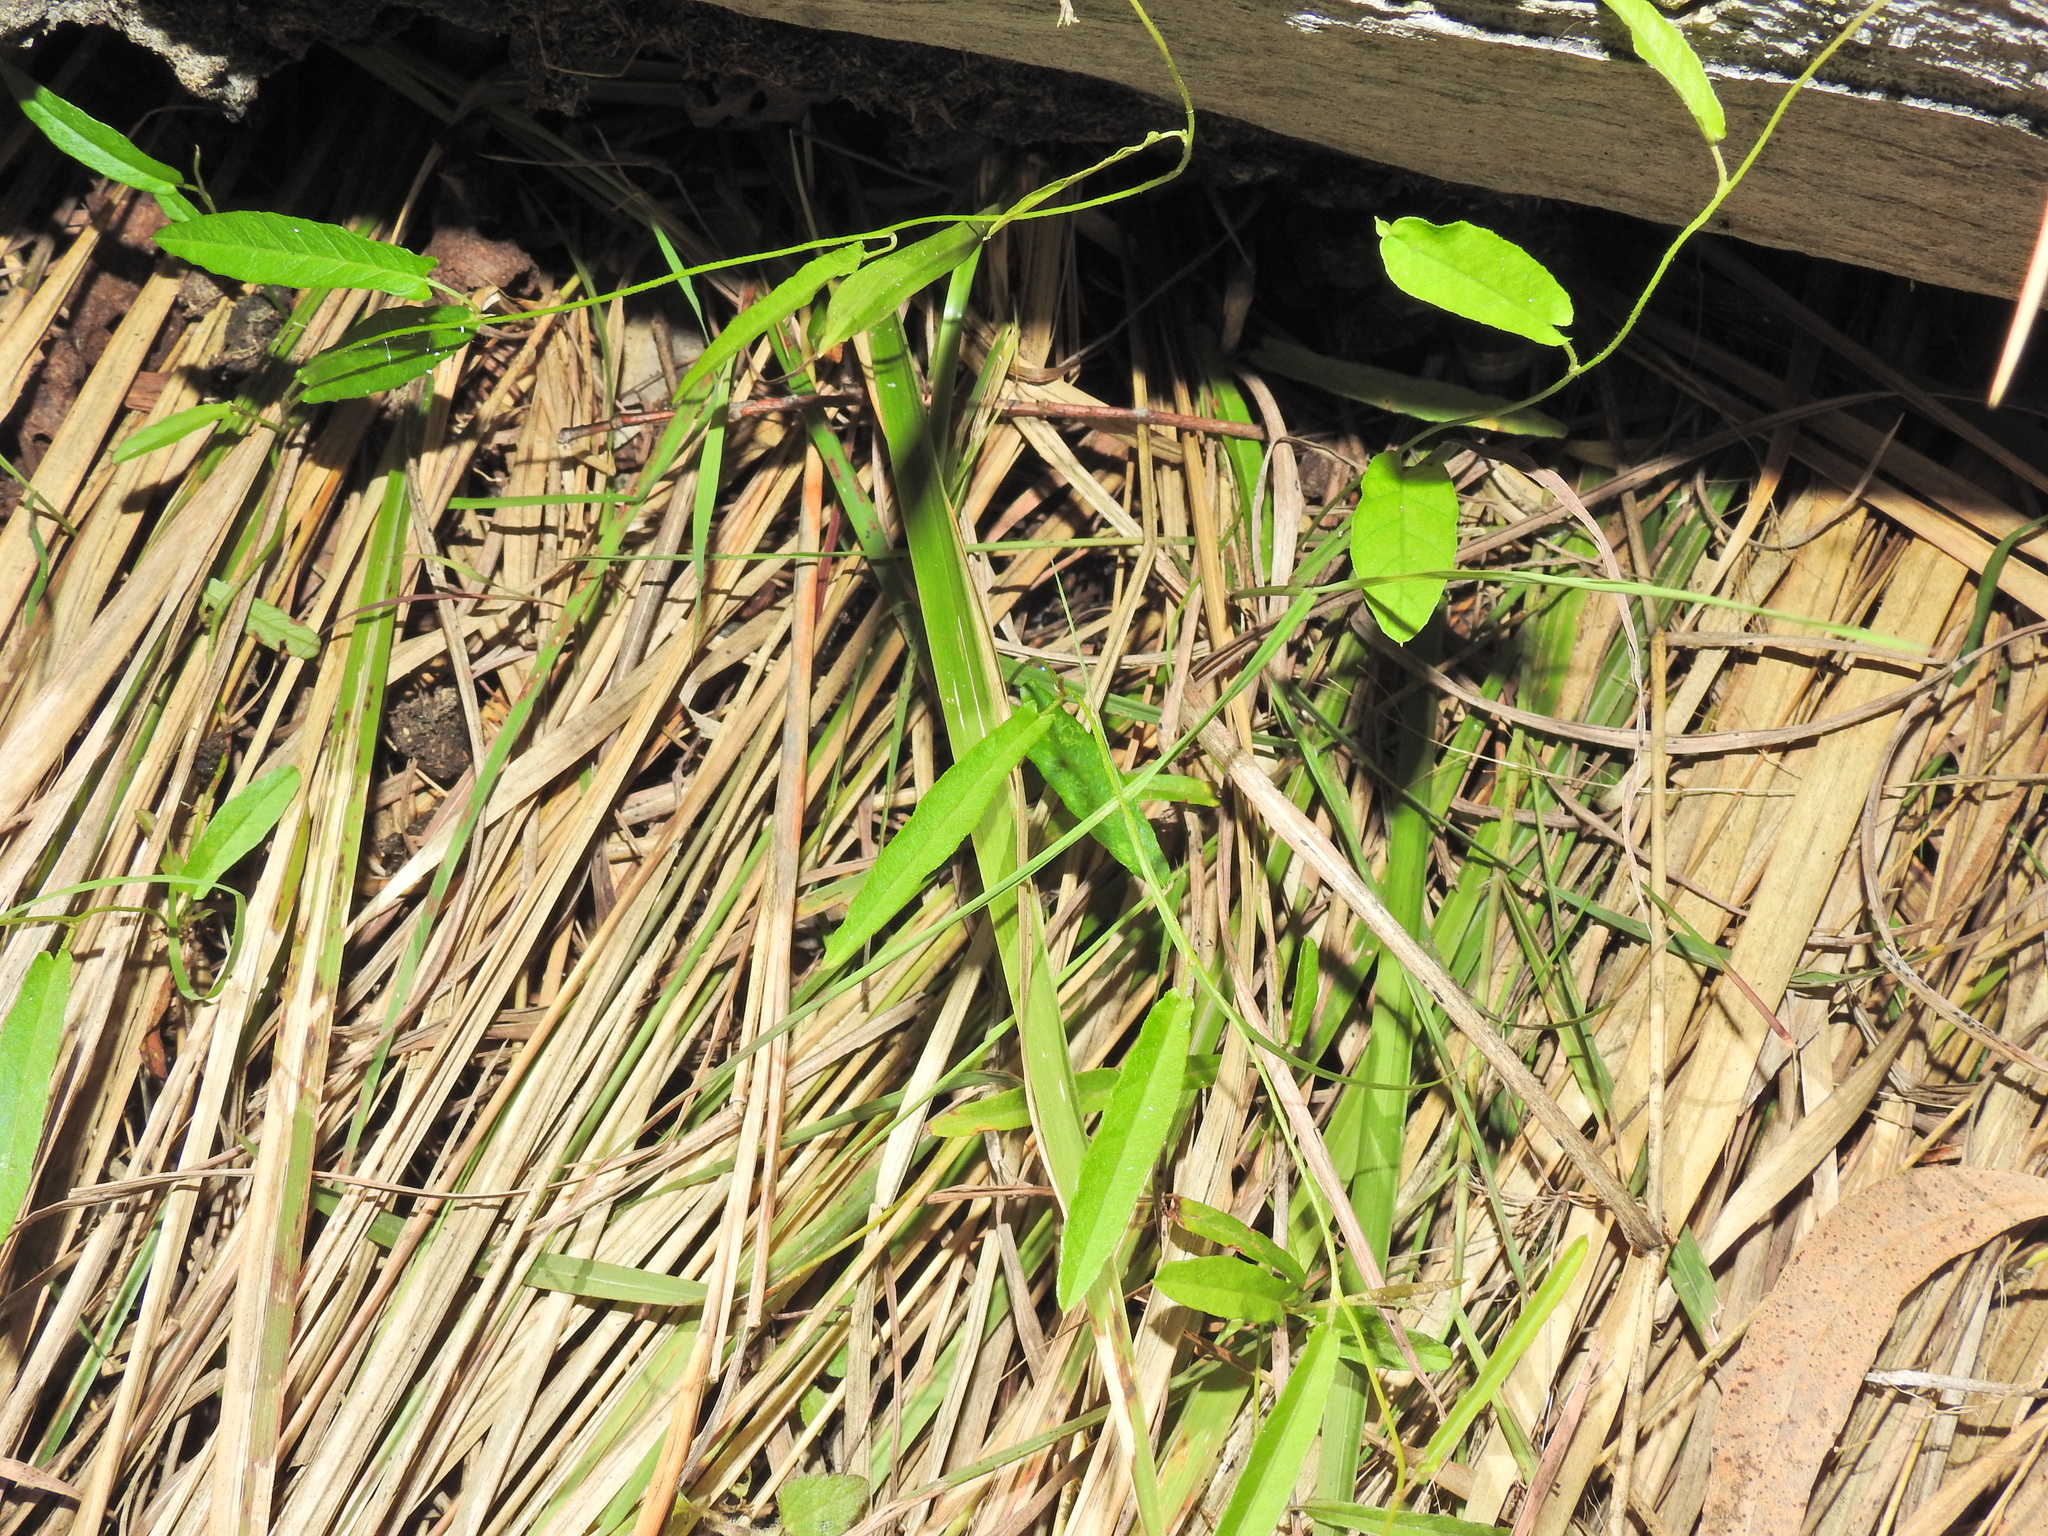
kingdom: Plantae
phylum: Tracheophyta
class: Magnoliopsida
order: Solanales
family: Convolvulaceae
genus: Polymeria
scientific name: Polymeria calycina
